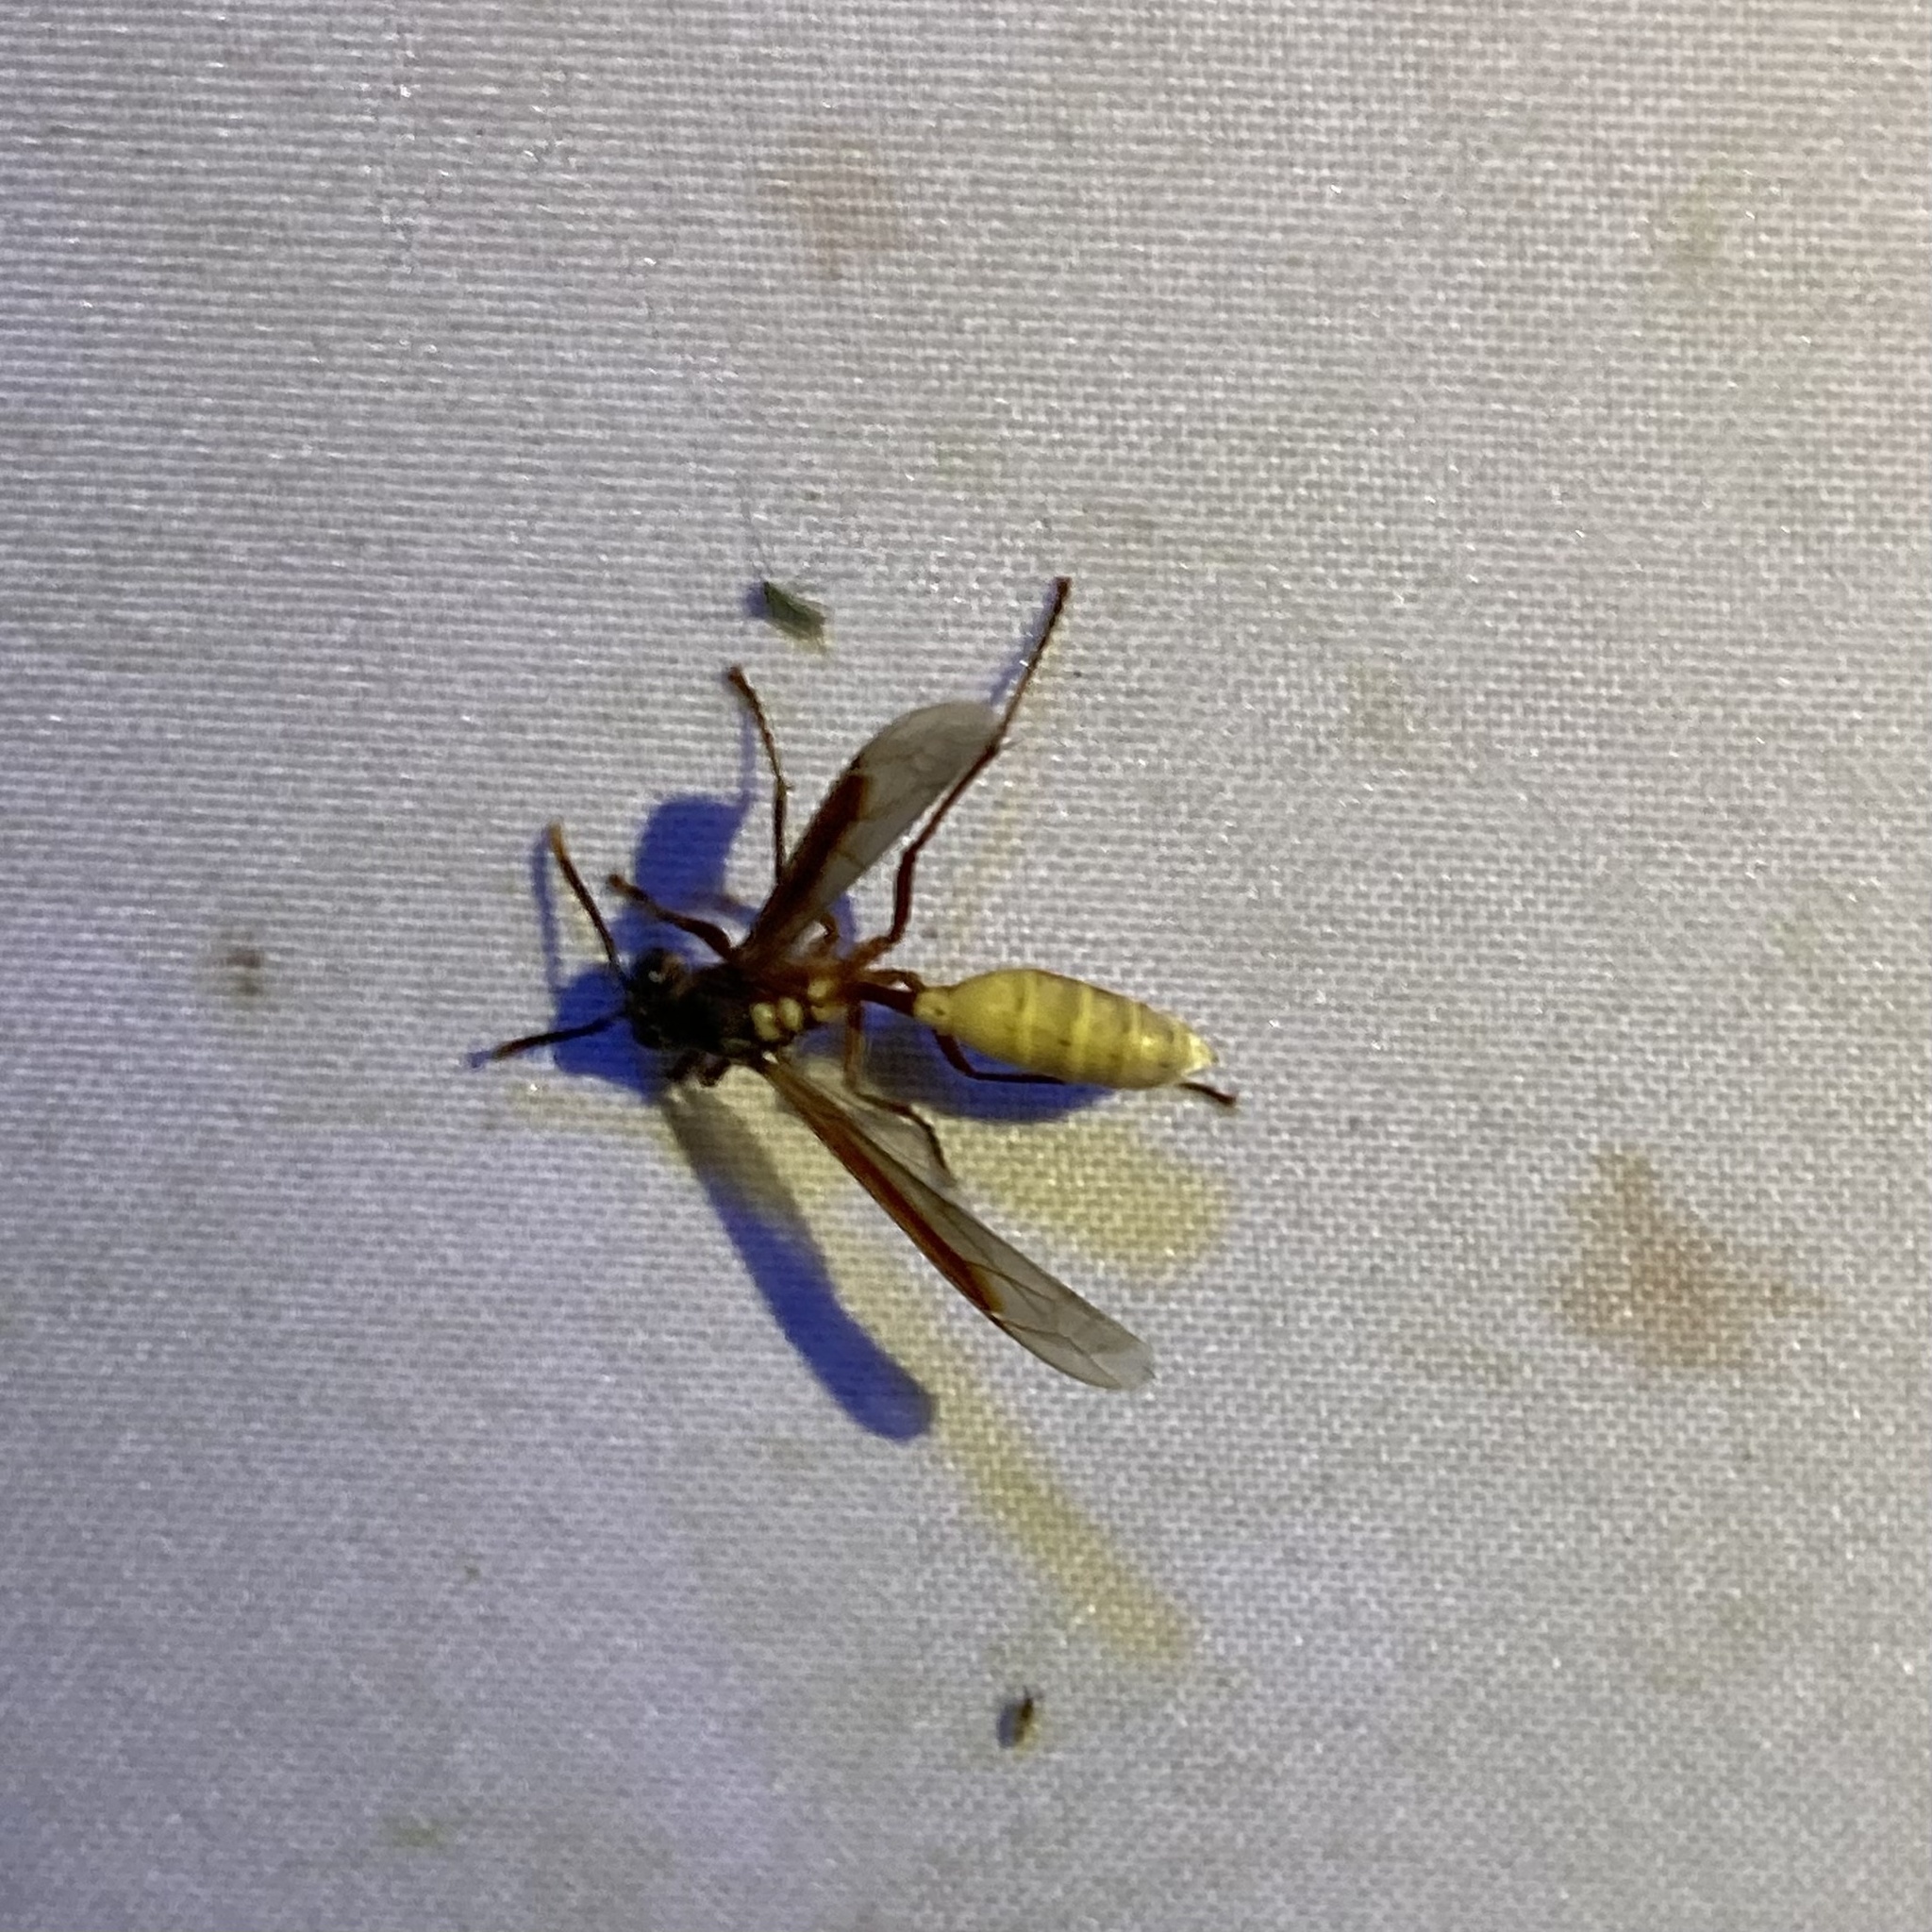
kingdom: Animalia
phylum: Arthropoda
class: Insecta
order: Hymenoptera
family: Vespidae
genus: Apoica
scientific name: Apoica pallens
